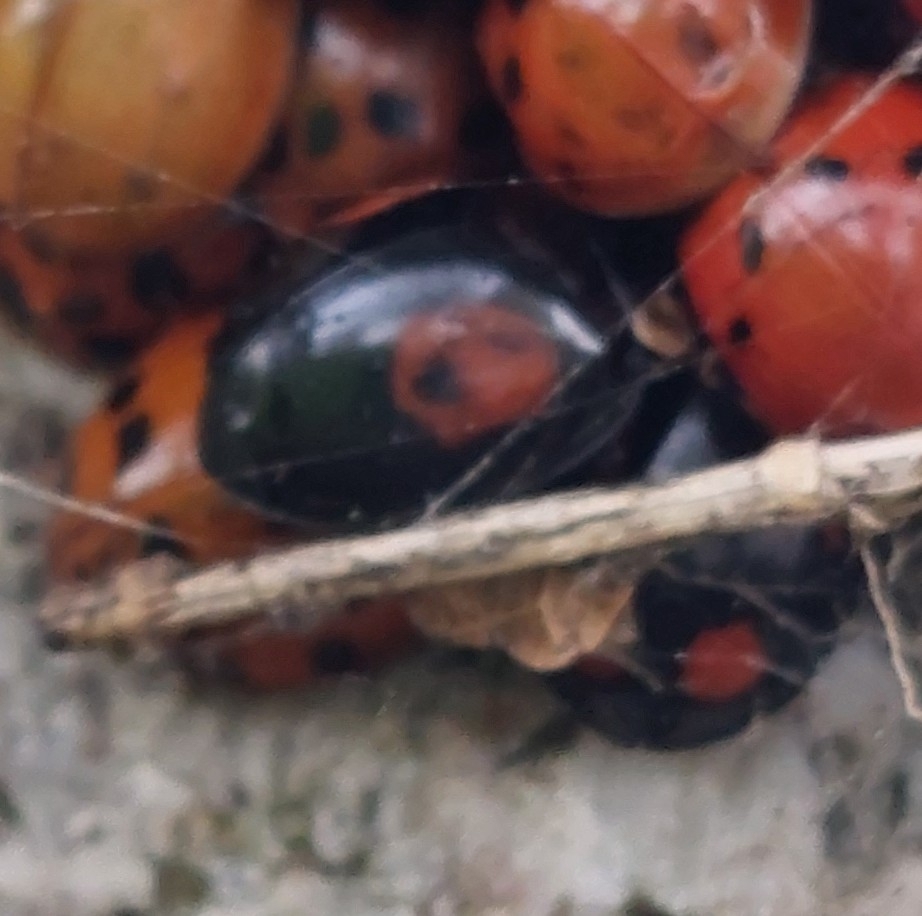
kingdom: Animalia
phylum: Arthropoda
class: Insecta
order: Coleoptera
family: Coccinellidae
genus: Harmonia
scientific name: Harmonia axyridis
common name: Harlequin ladybird
